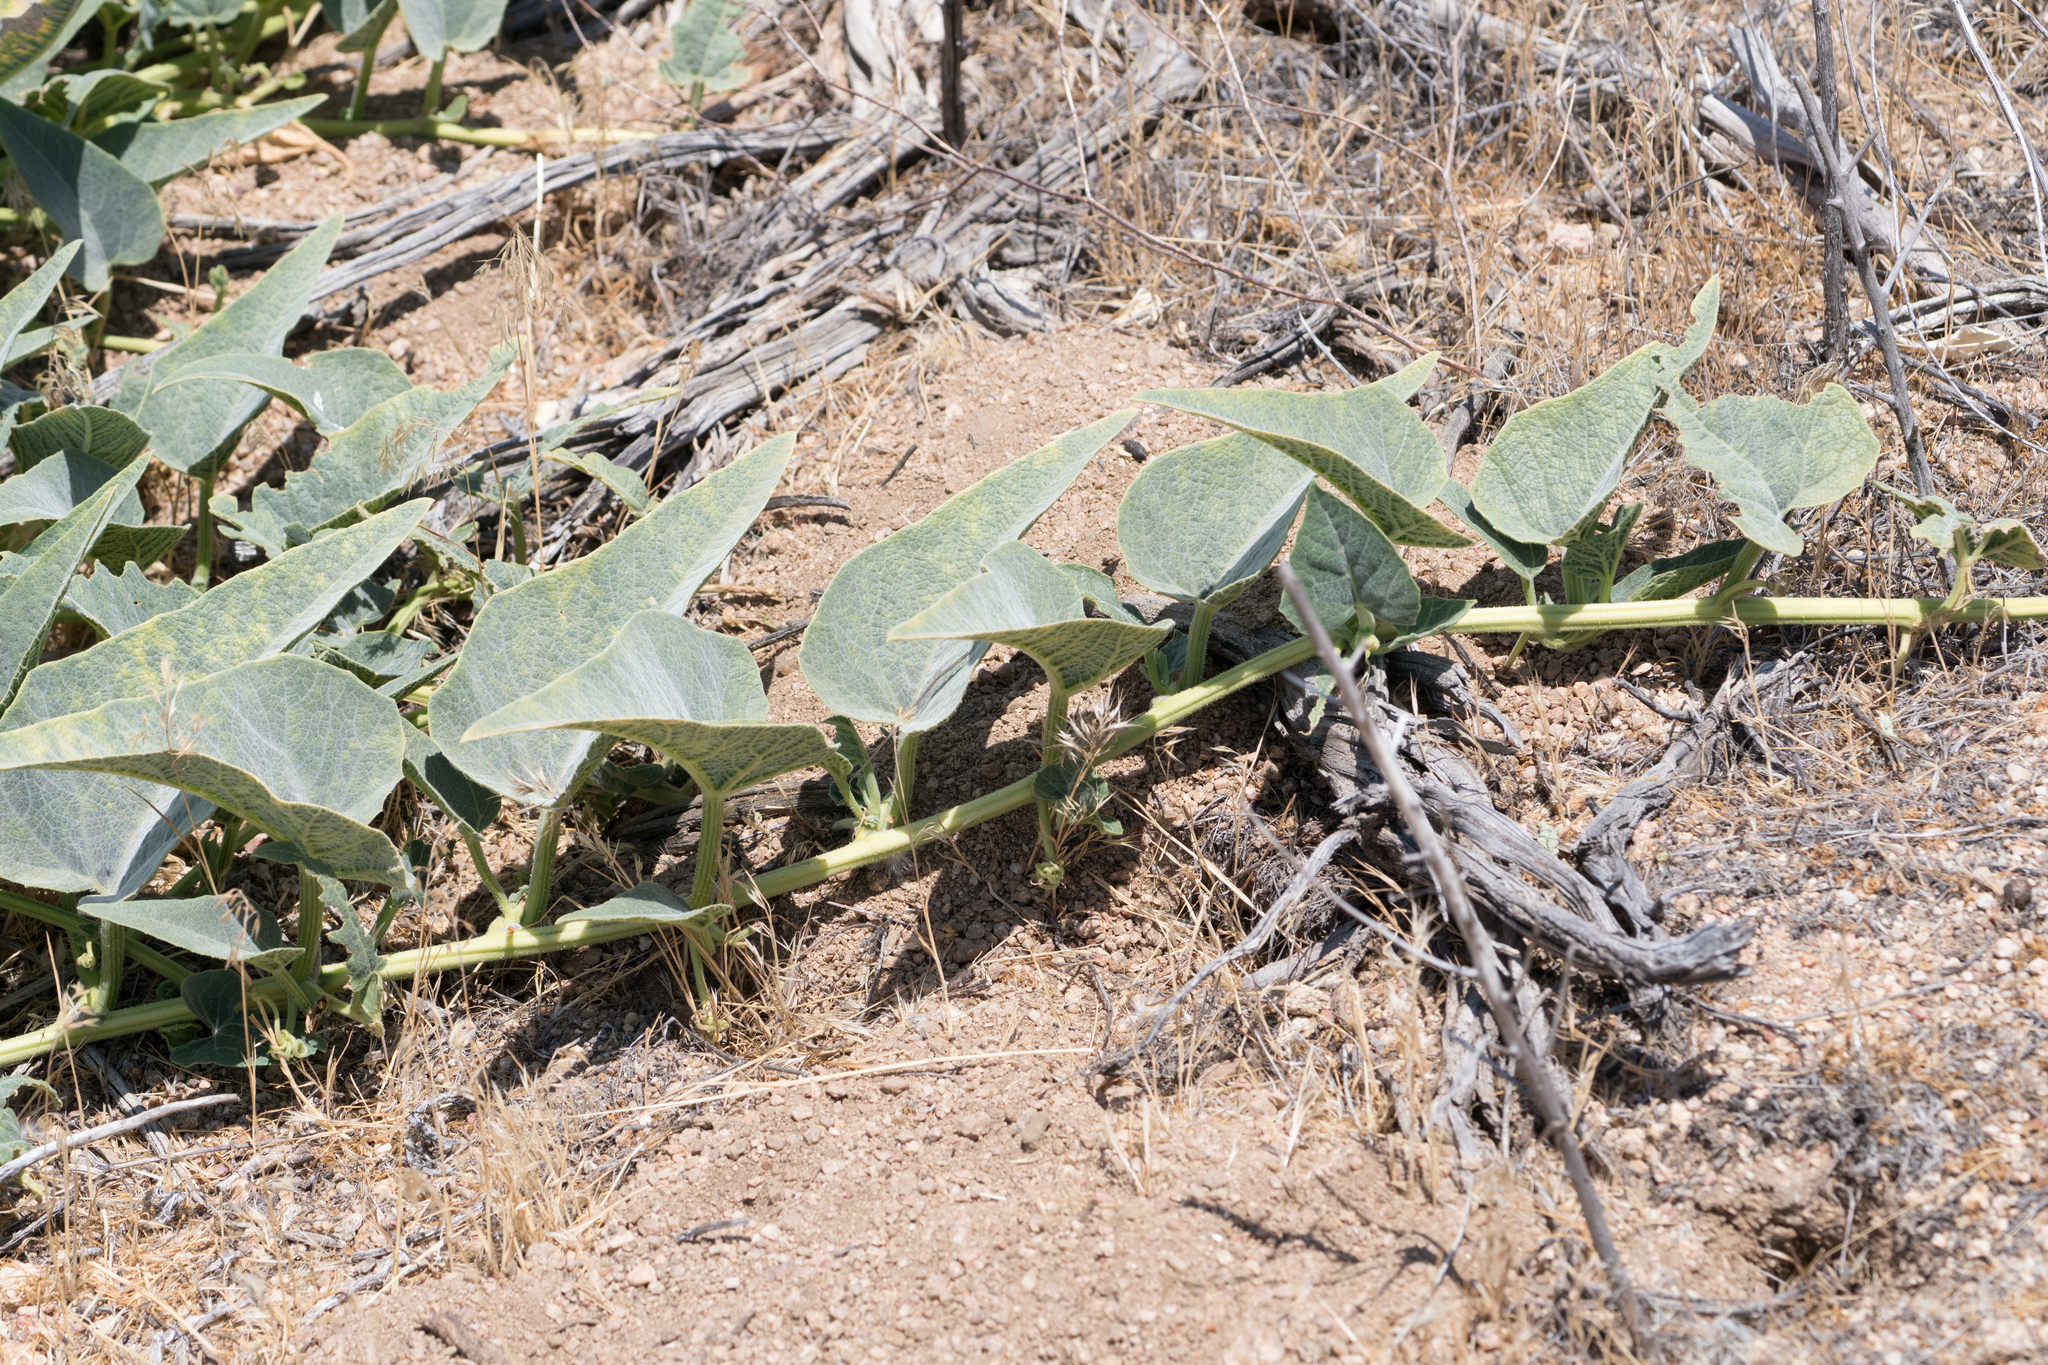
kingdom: Plantae
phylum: Tracheophyta
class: Magnoliopsida
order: Cucurbitales
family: Cucurbitaceae
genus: Cucurbita
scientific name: Cucurbita foetidissima
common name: Buffalo gourd
